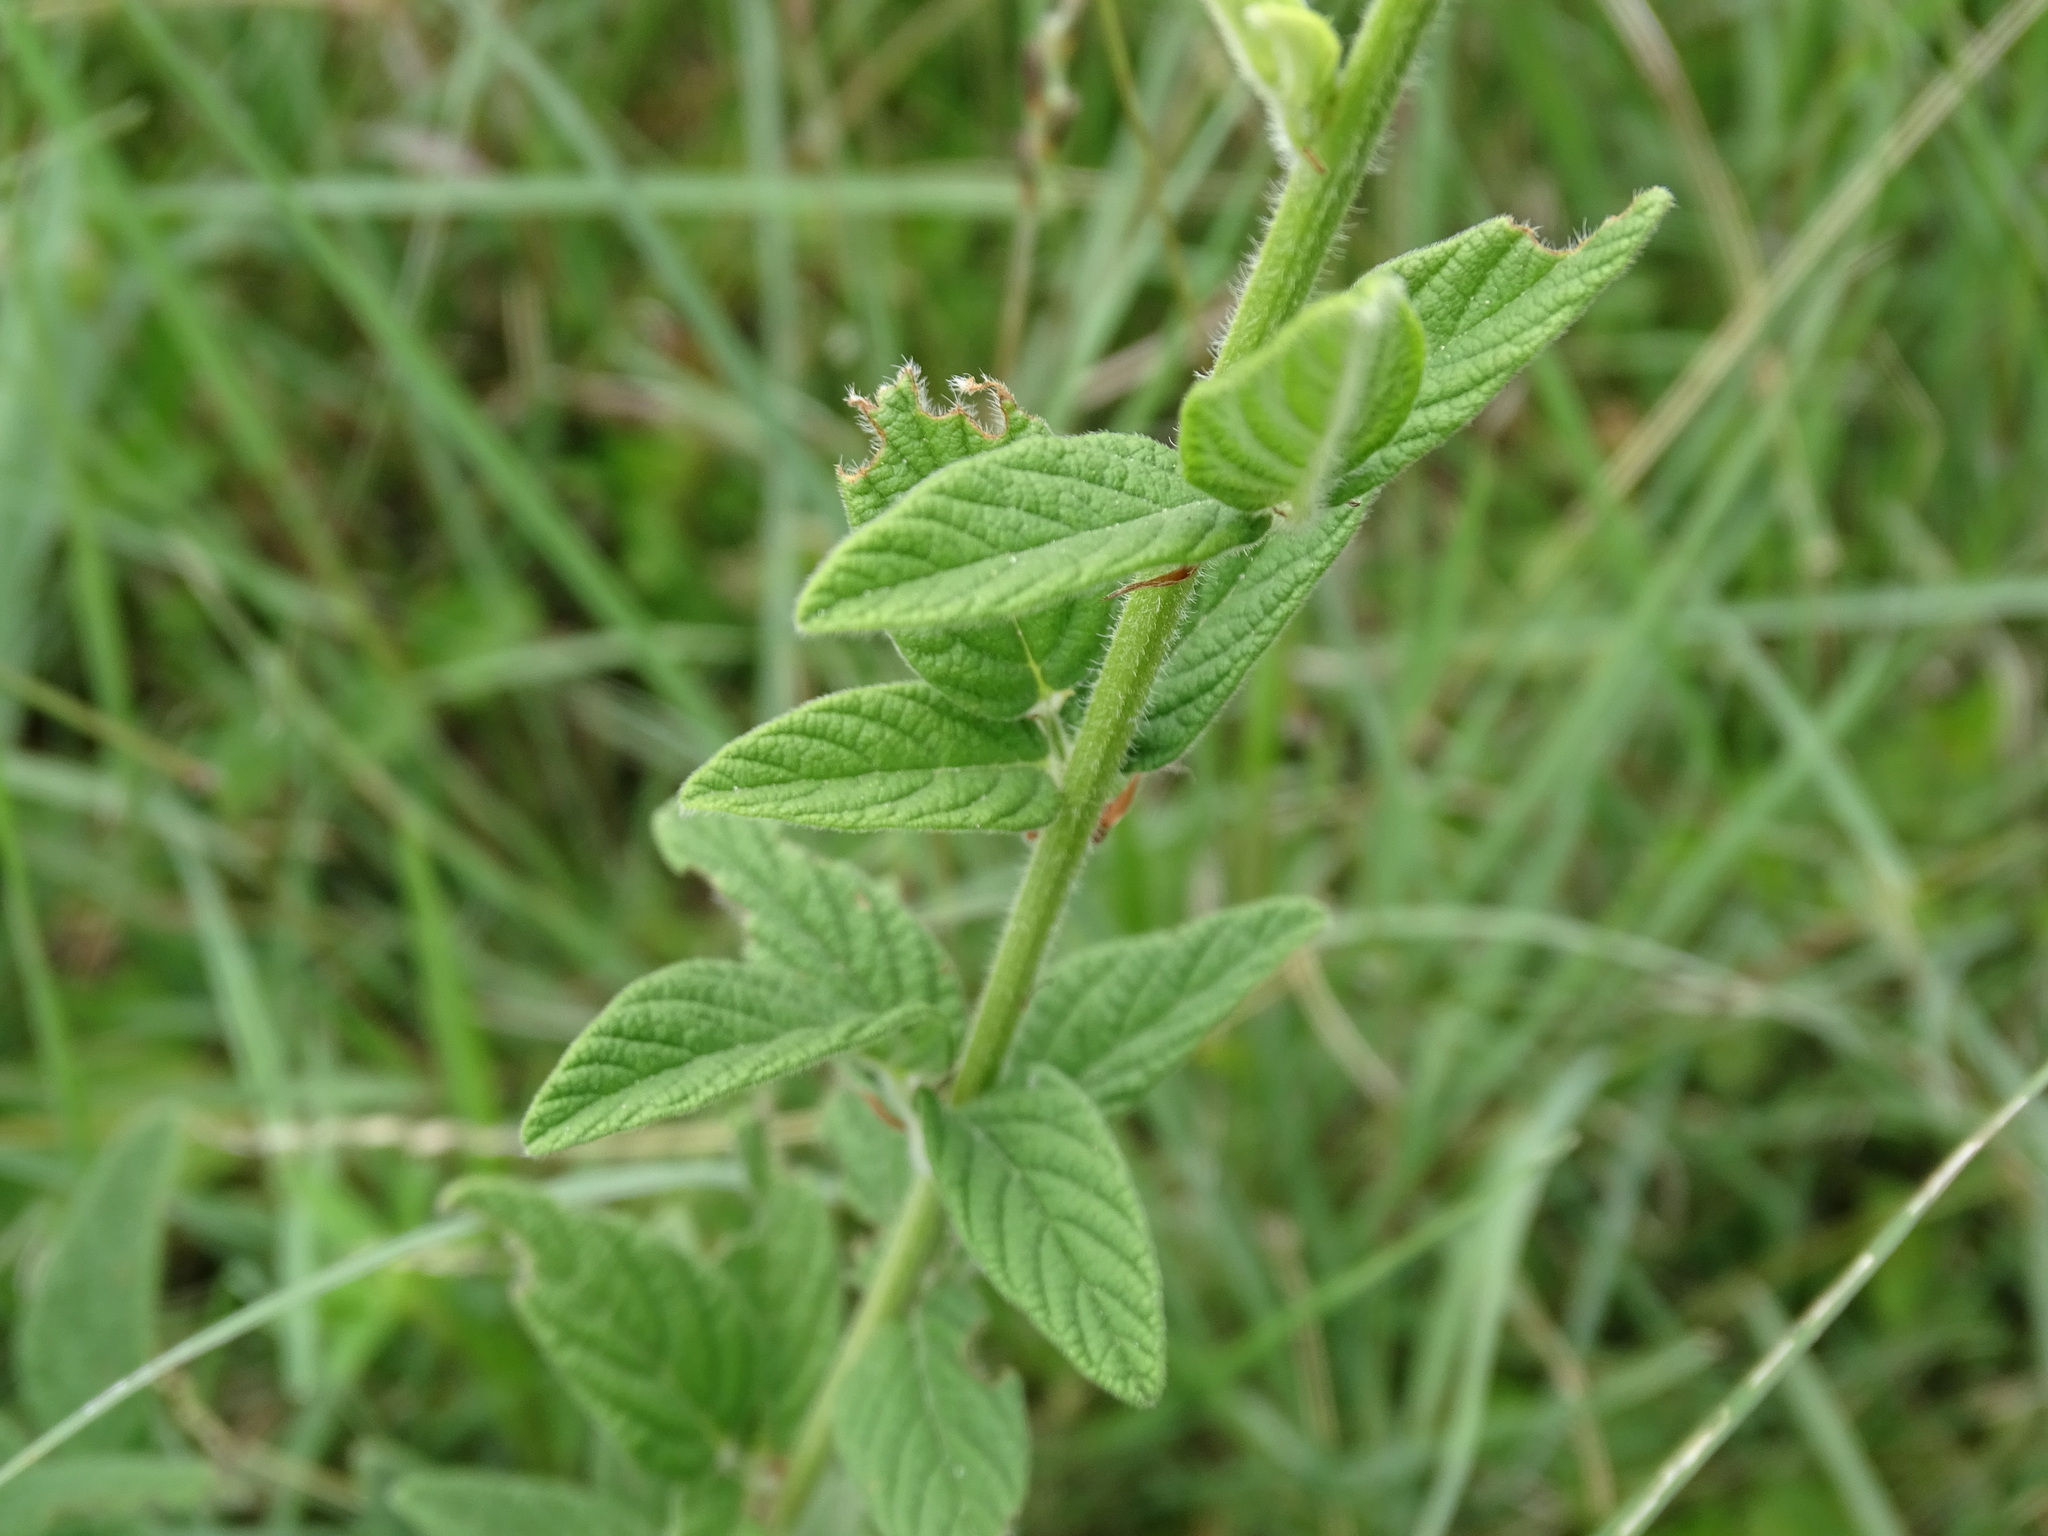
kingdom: Plantae
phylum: Tracheophyta
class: Magnoliopsida
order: Fabales
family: Fabaceae
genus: Desmodium
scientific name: Desmodium subsessile
